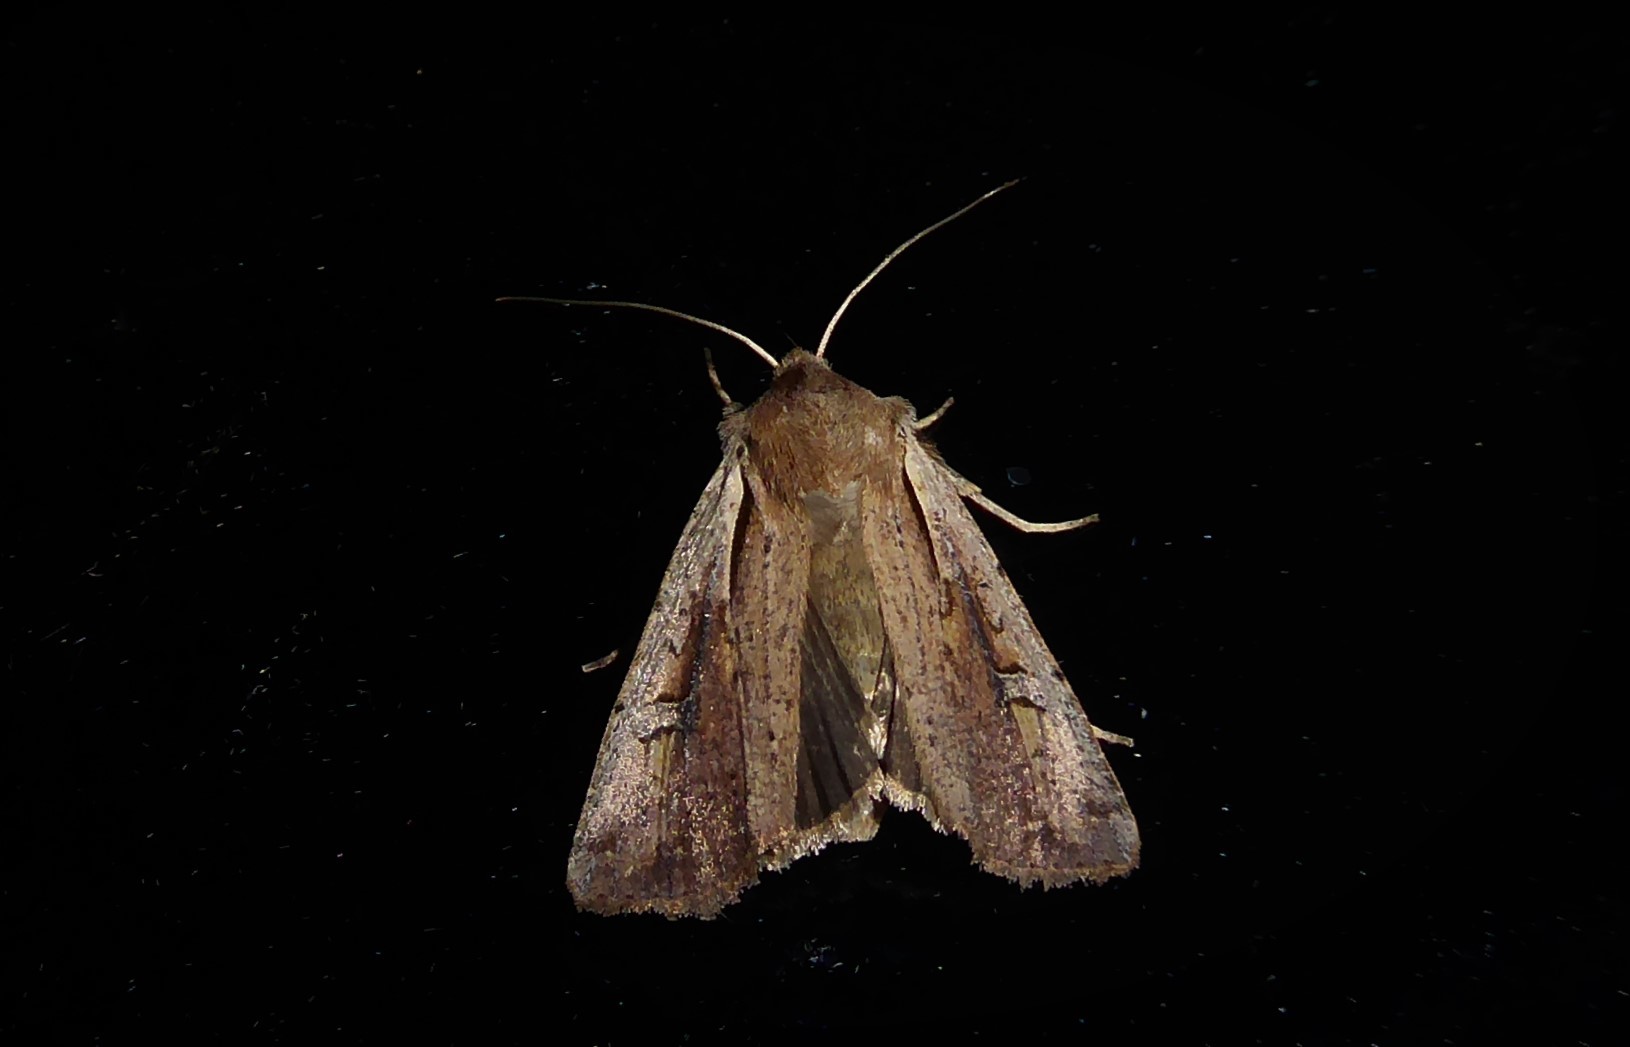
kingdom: Animalia
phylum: Arthropoda
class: Insecta
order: Lepidoptera
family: Noctuidae
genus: Ichneutica
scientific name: Ichneutica atristriga
